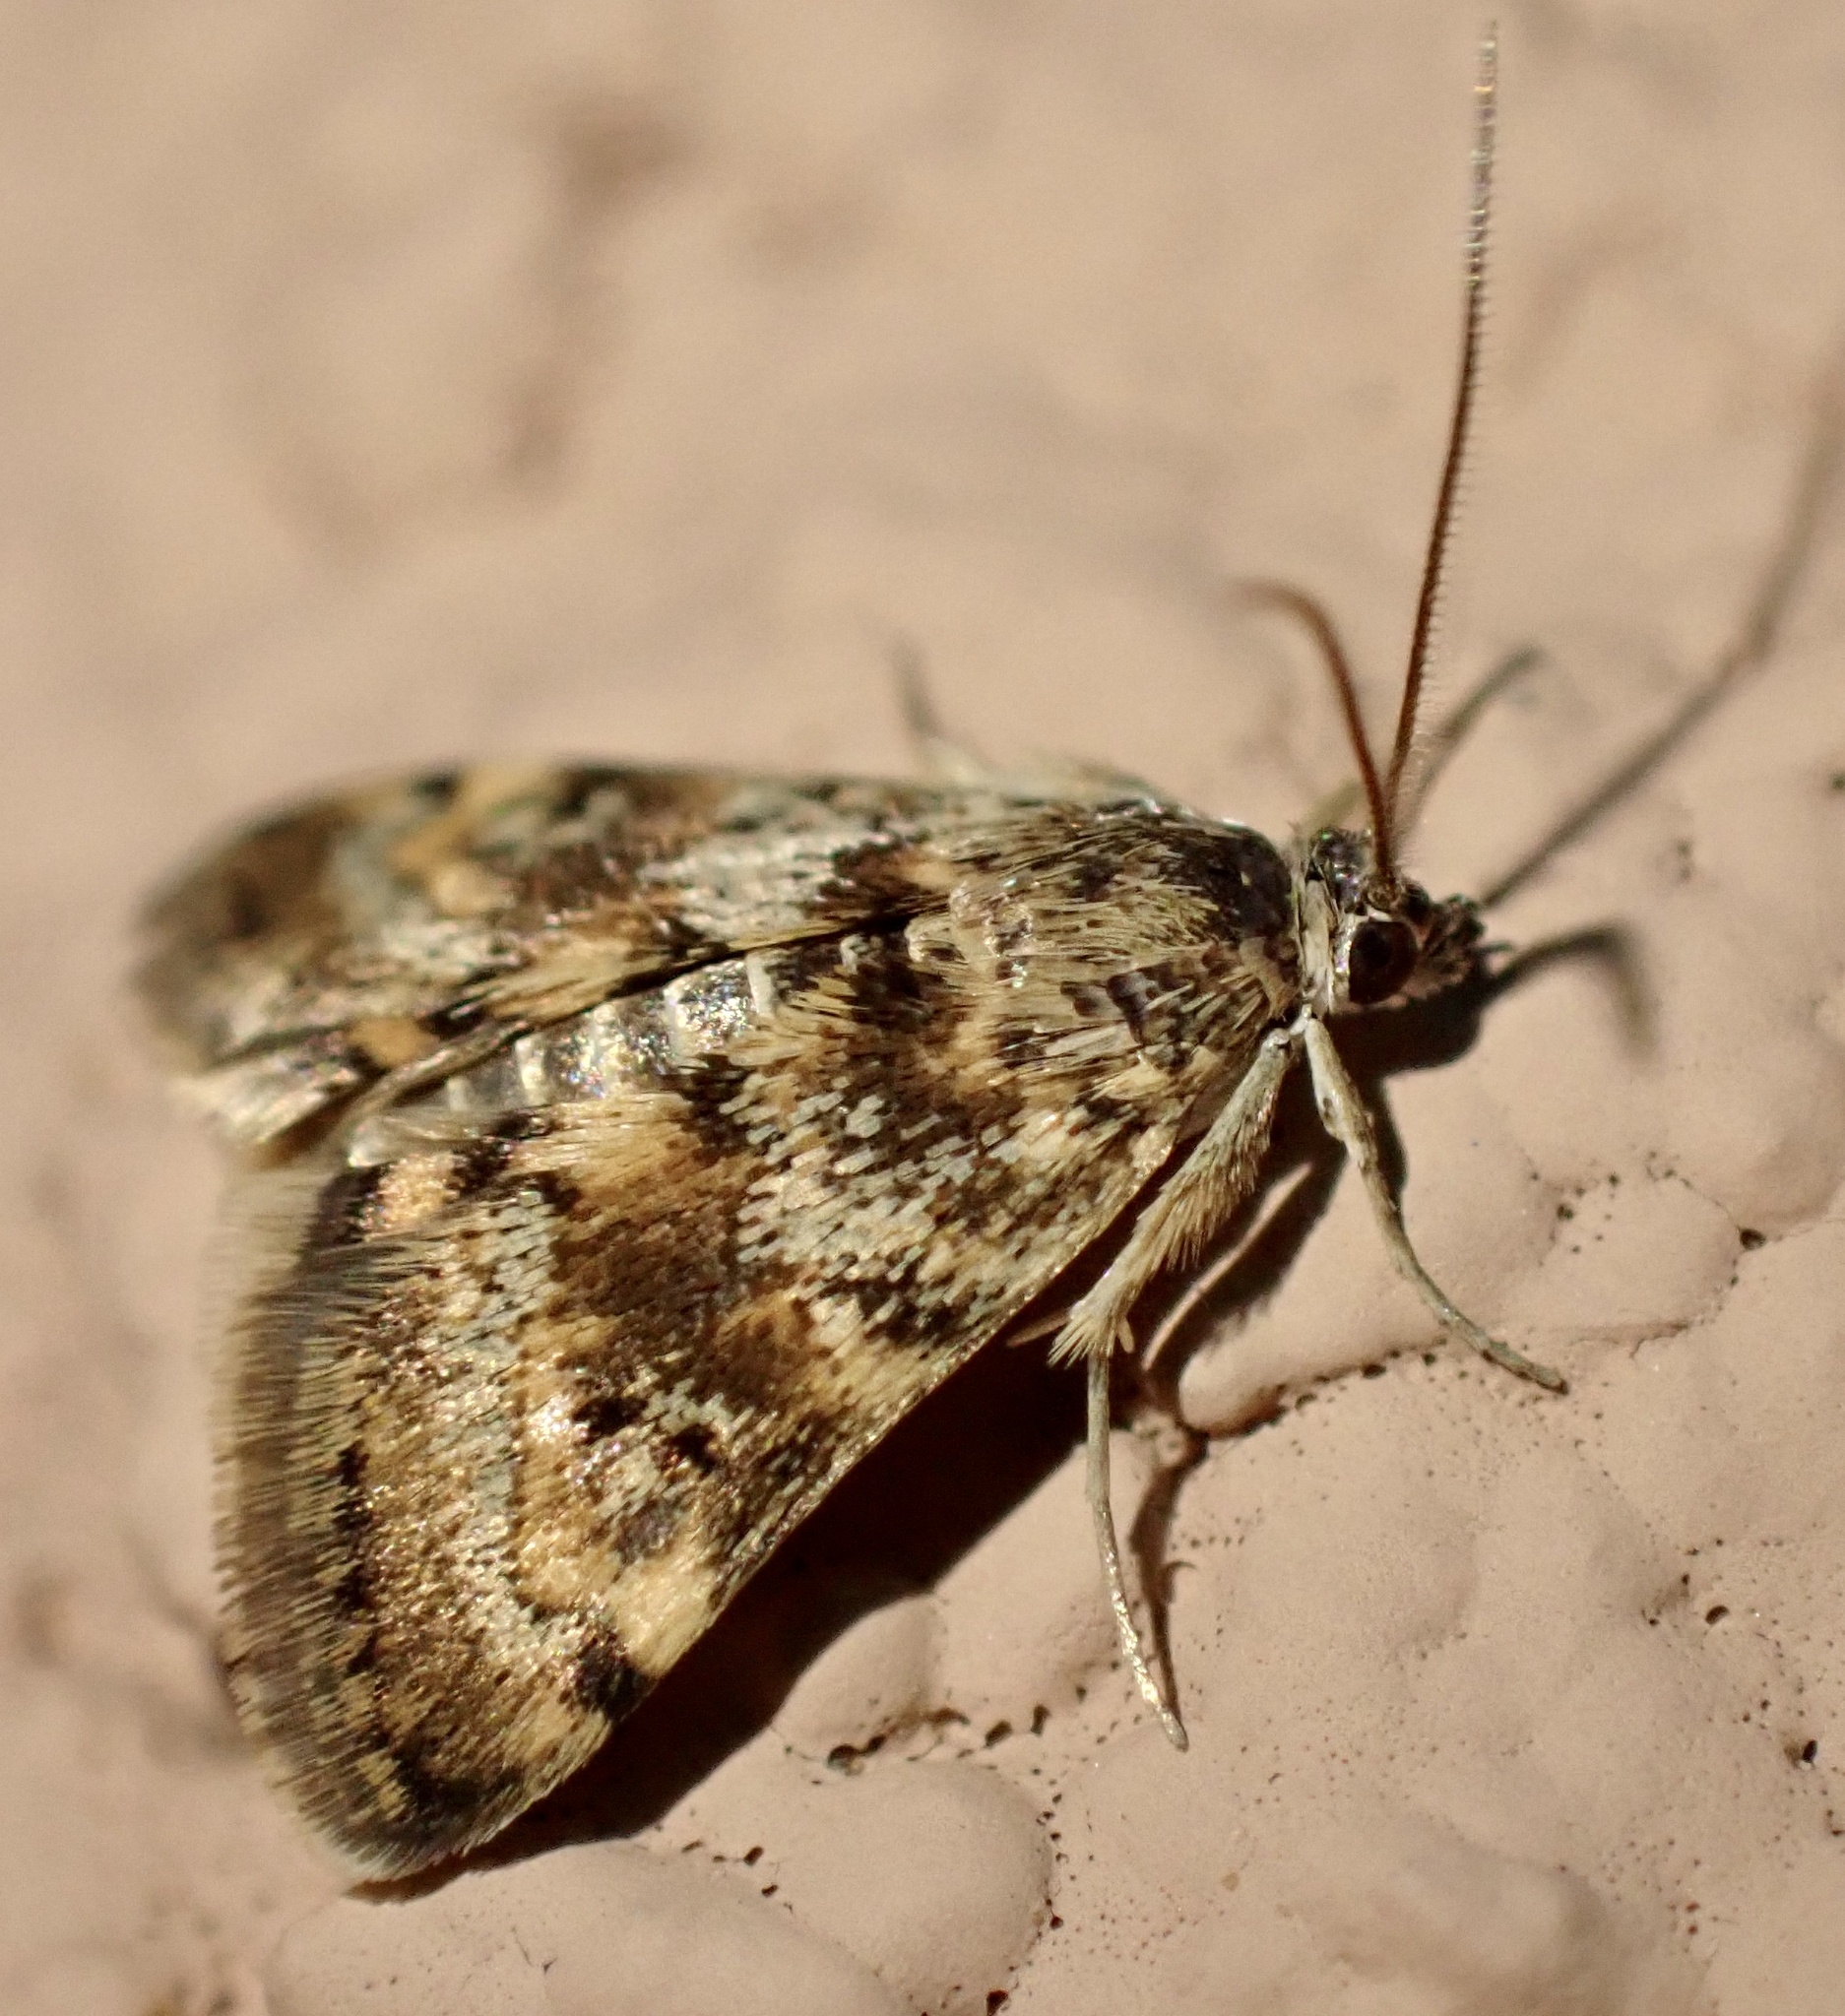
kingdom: Animalia
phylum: Arthropoda
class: Insecta
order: Lepidoptera
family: Crambidae
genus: Noctuelia
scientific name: Noctuelia Aporodes floralis
